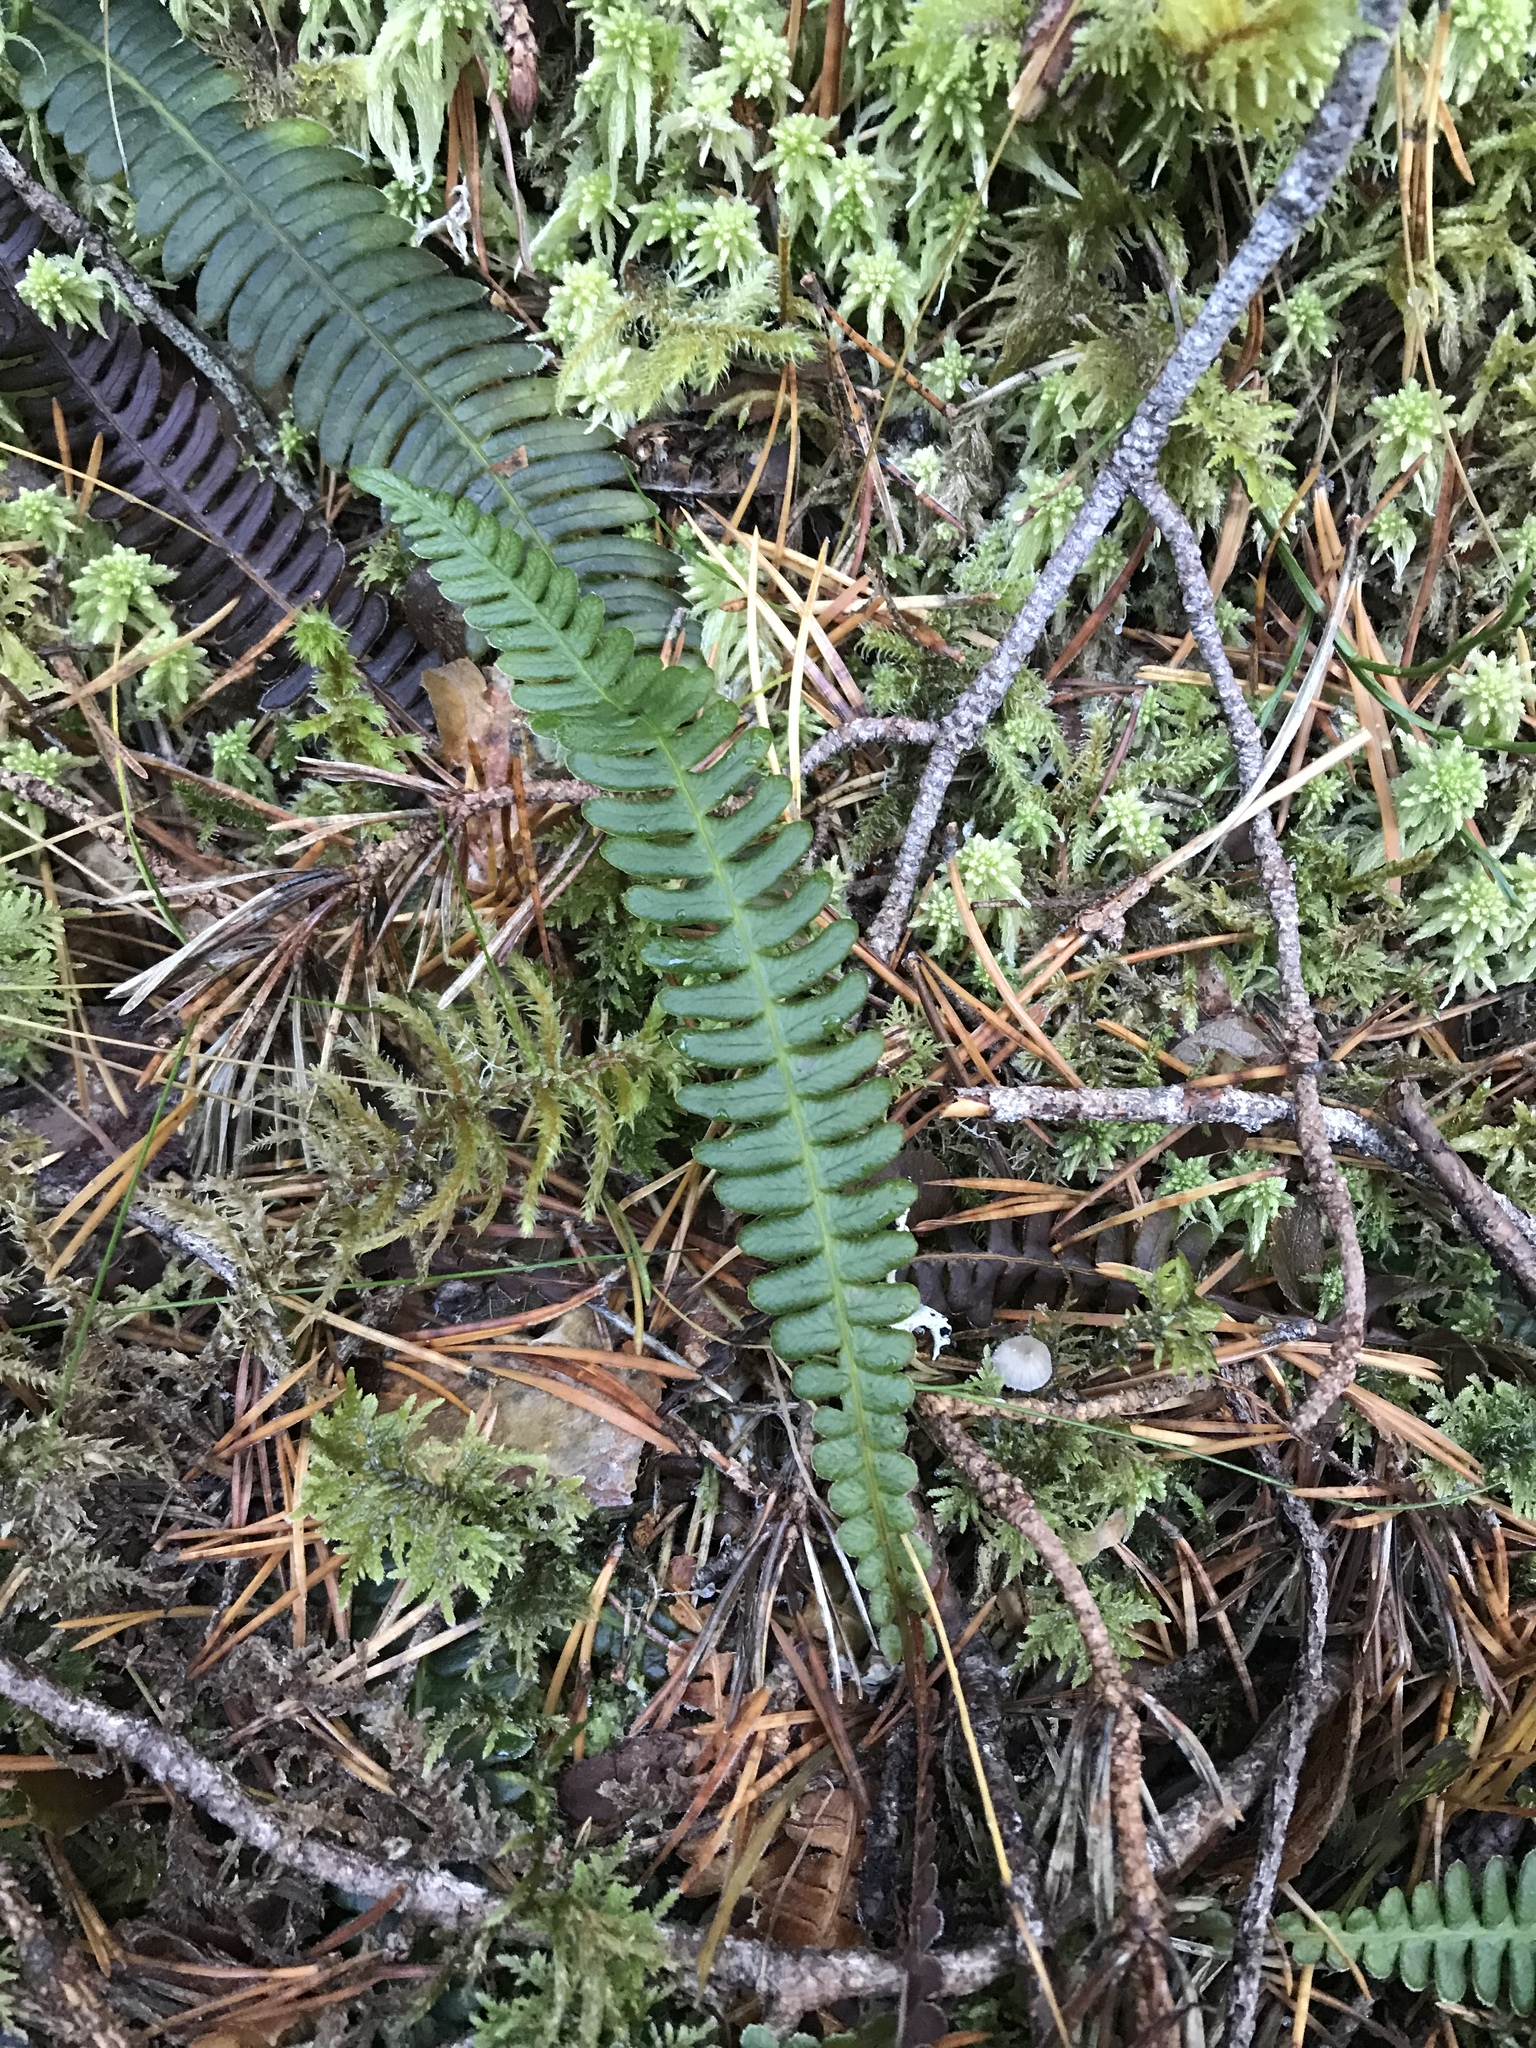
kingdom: Plantae
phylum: Tracheophyta
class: Polypodiopsida
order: Polypodiales
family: Blechnaceae
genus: Struthiopteris
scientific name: Struthiopteris spicant
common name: Deer fern
